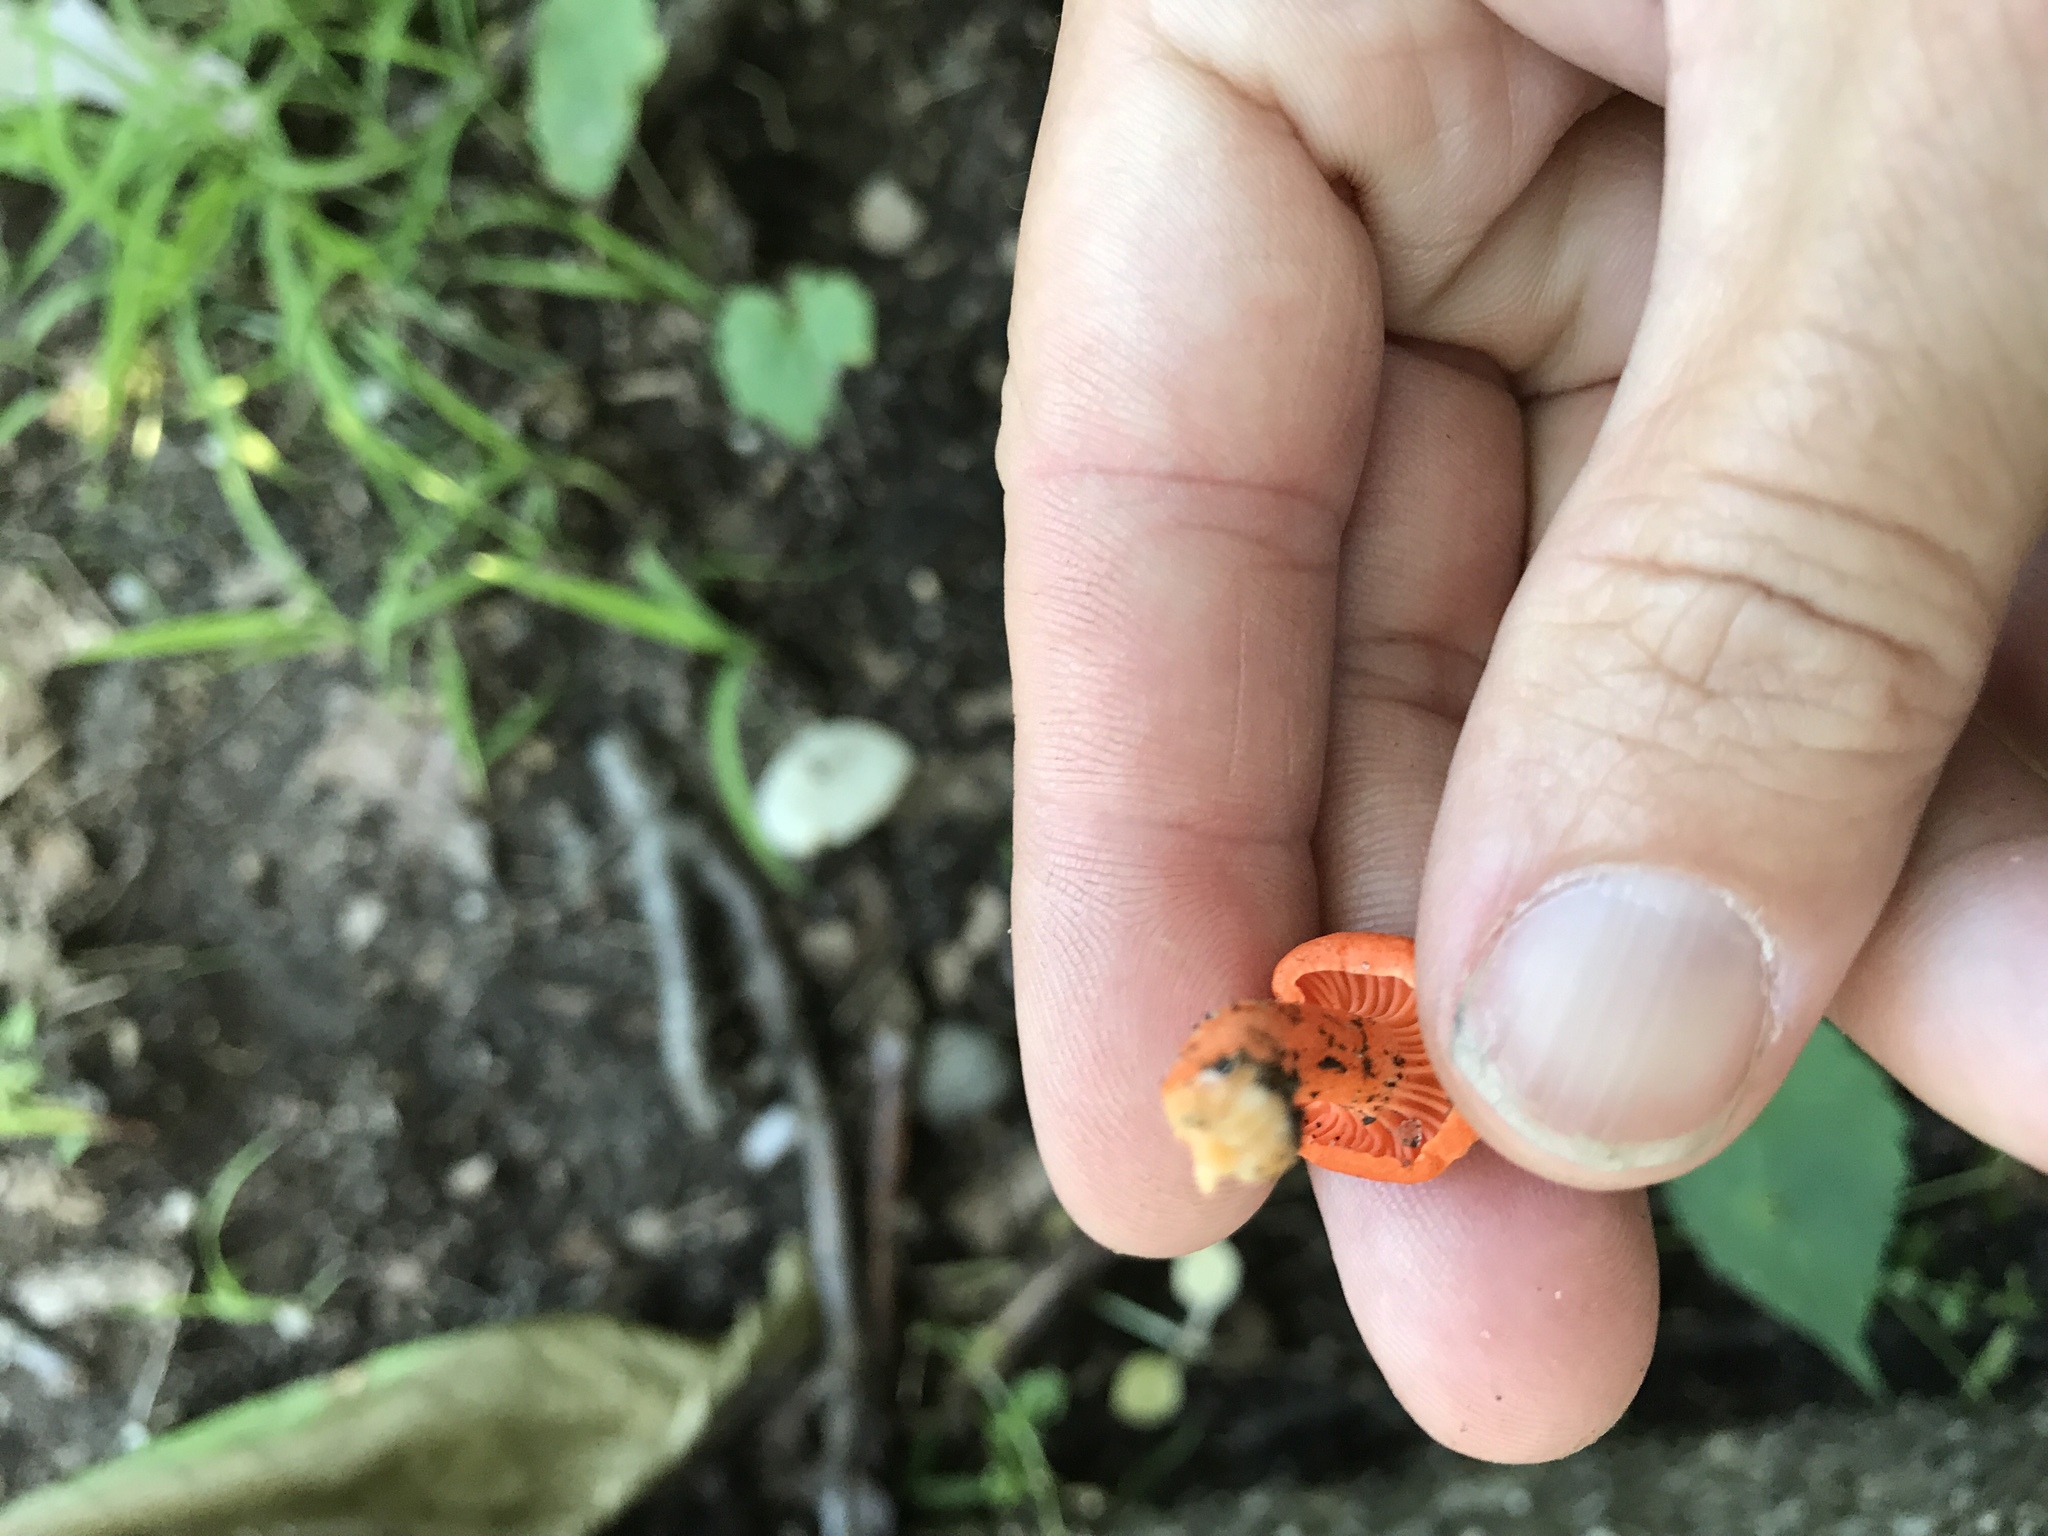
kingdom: Fungi
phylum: Basidiomycota
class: Agaricomycetes
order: Cantharellales
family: Hydnaceae
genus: Cantharellus
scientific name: Cantharellus cinnabarinus
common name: Cinnabar chanterelle
